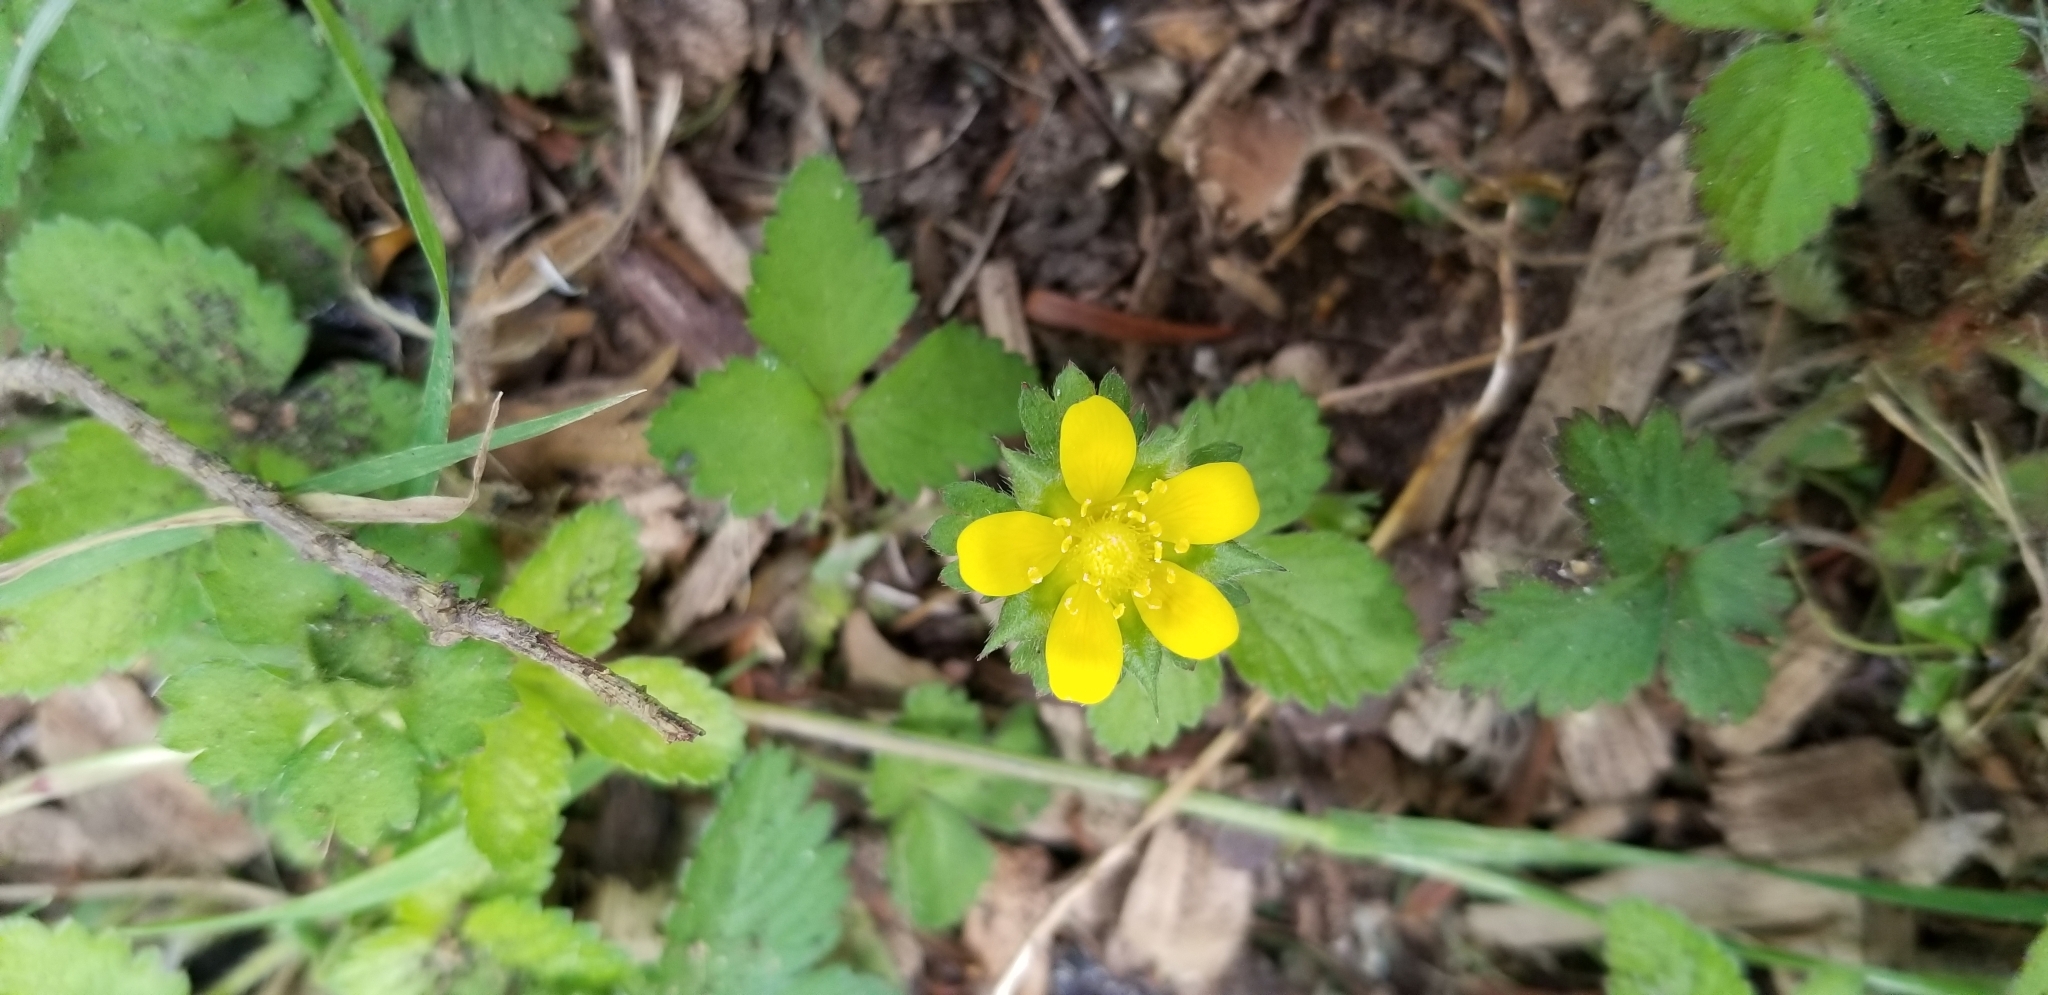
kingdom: Plantae
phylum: Tracheophyta
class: Magnoliopsida
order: Rosales
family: Rosaceae
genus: Potentilla
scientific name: Potentilla indica
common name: Yellow-flowered strawberry
